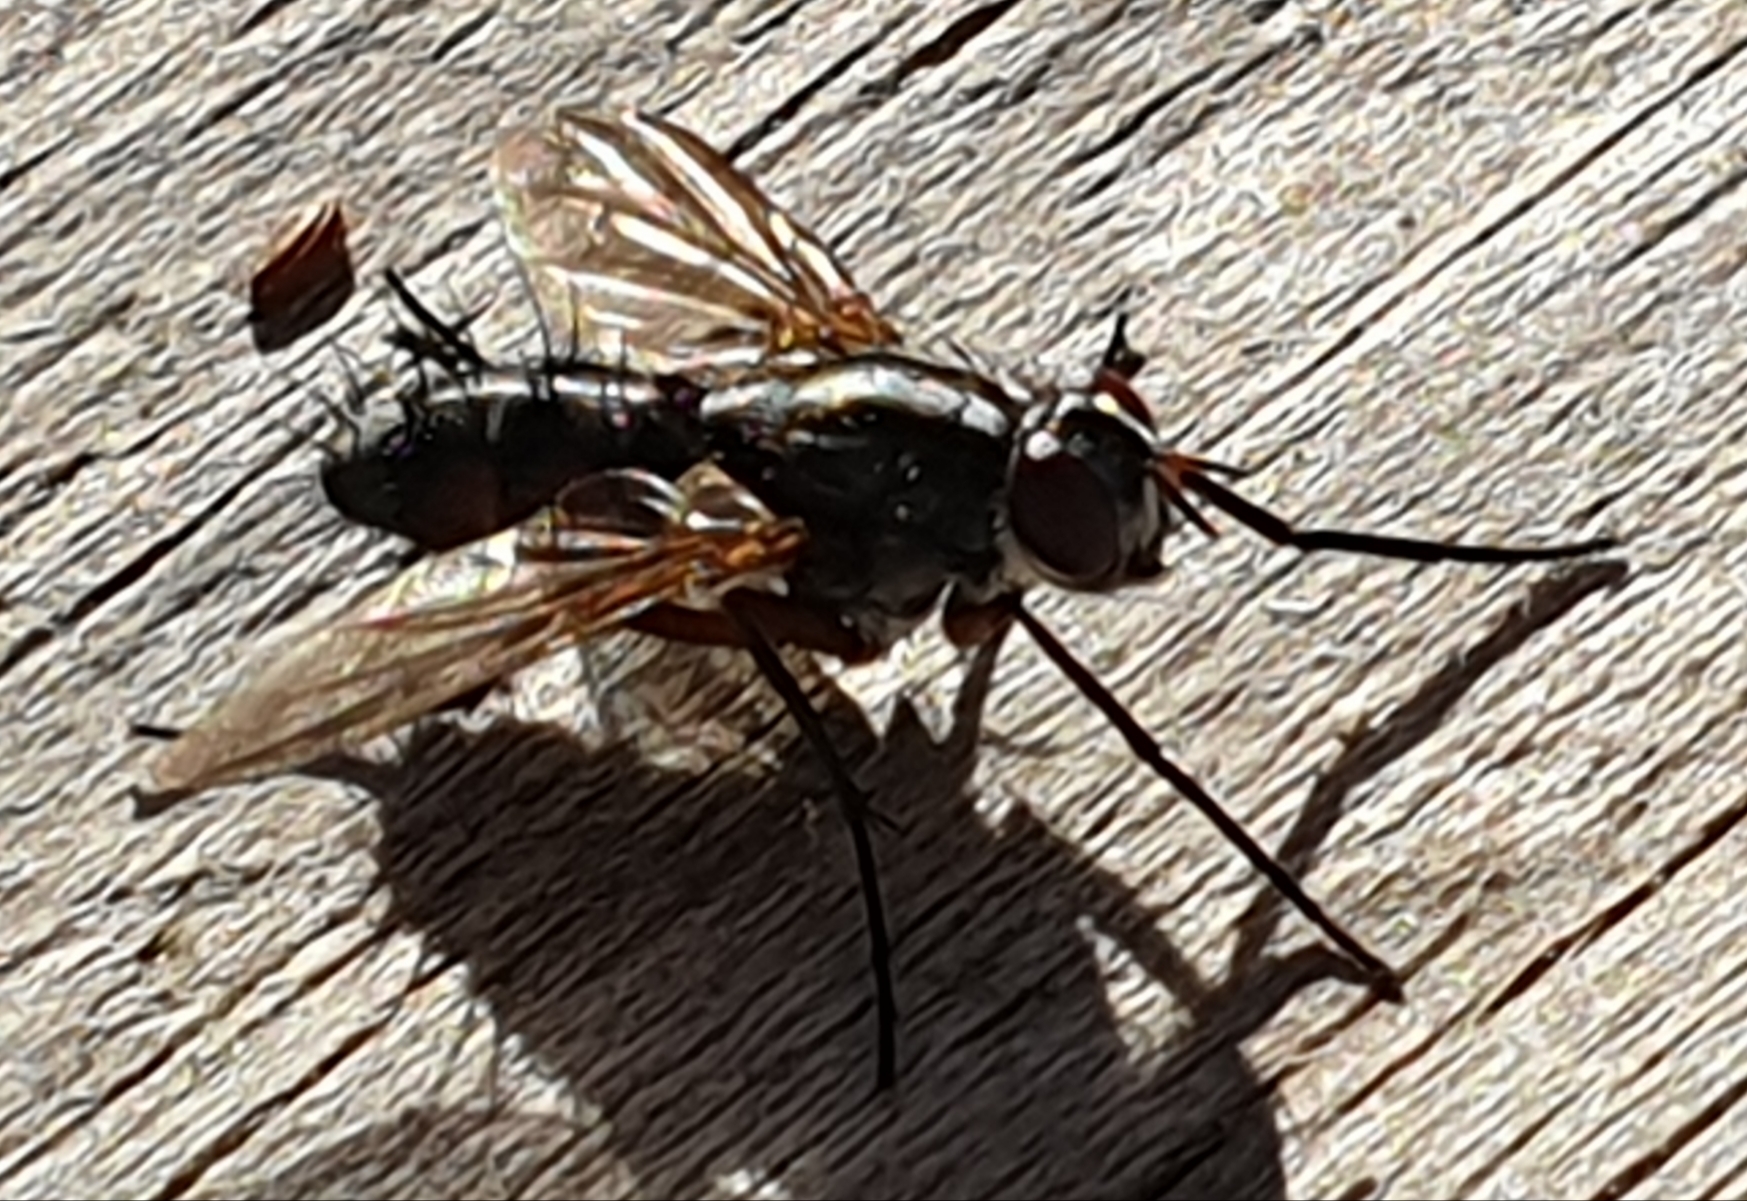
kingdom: Animalia
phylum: Arthropoda
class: Insecta
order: Diptera
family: Tachinidae
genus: Mintho
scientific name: Mintho rufiventris
